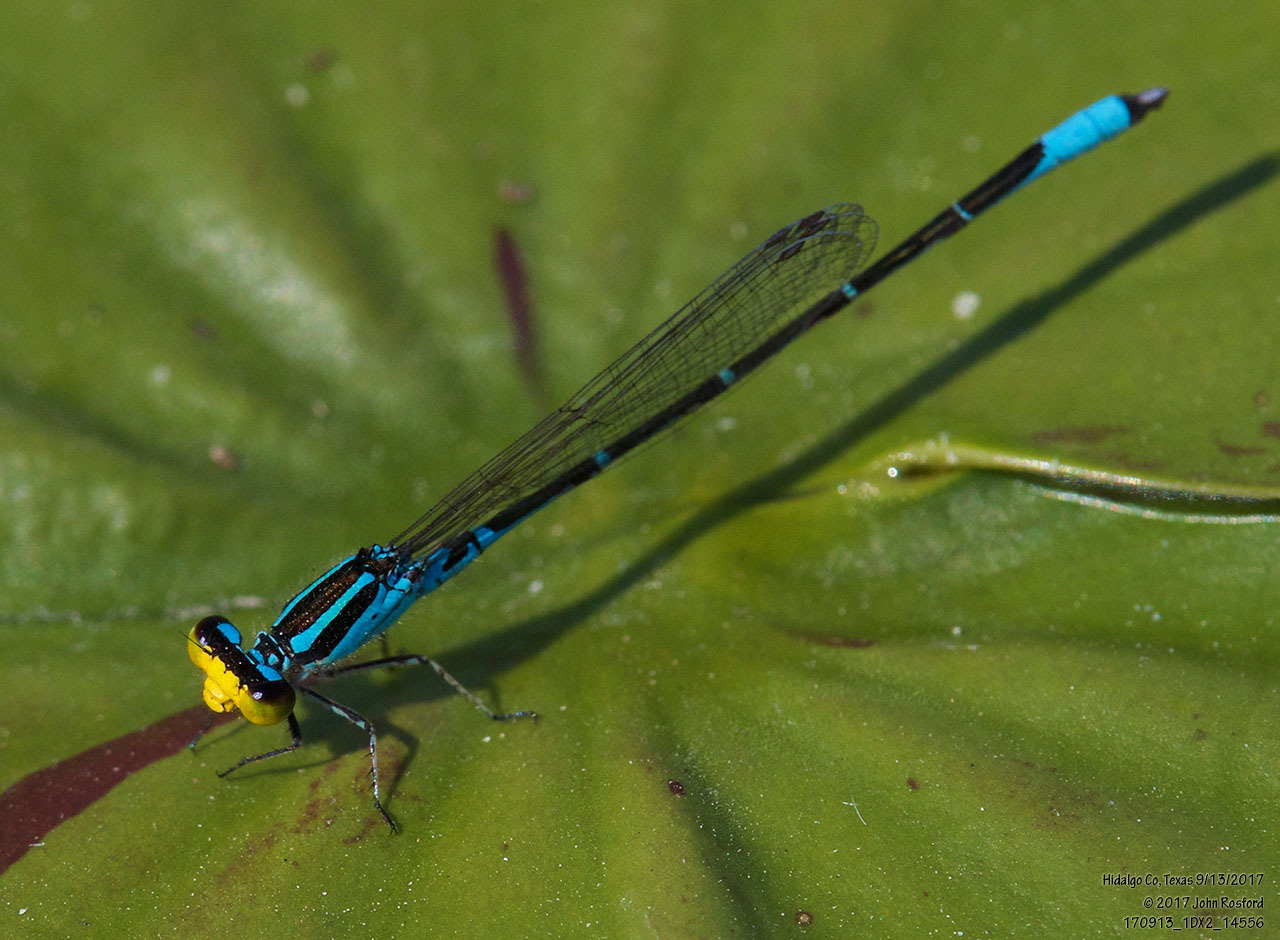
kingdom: Animalia
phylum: Arthropoda
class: Insecta
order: Odonata
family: Coenagrionidae
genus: Neoerythromma
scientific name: Neoerythromma cultellatum
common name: Caribbean yellowface
